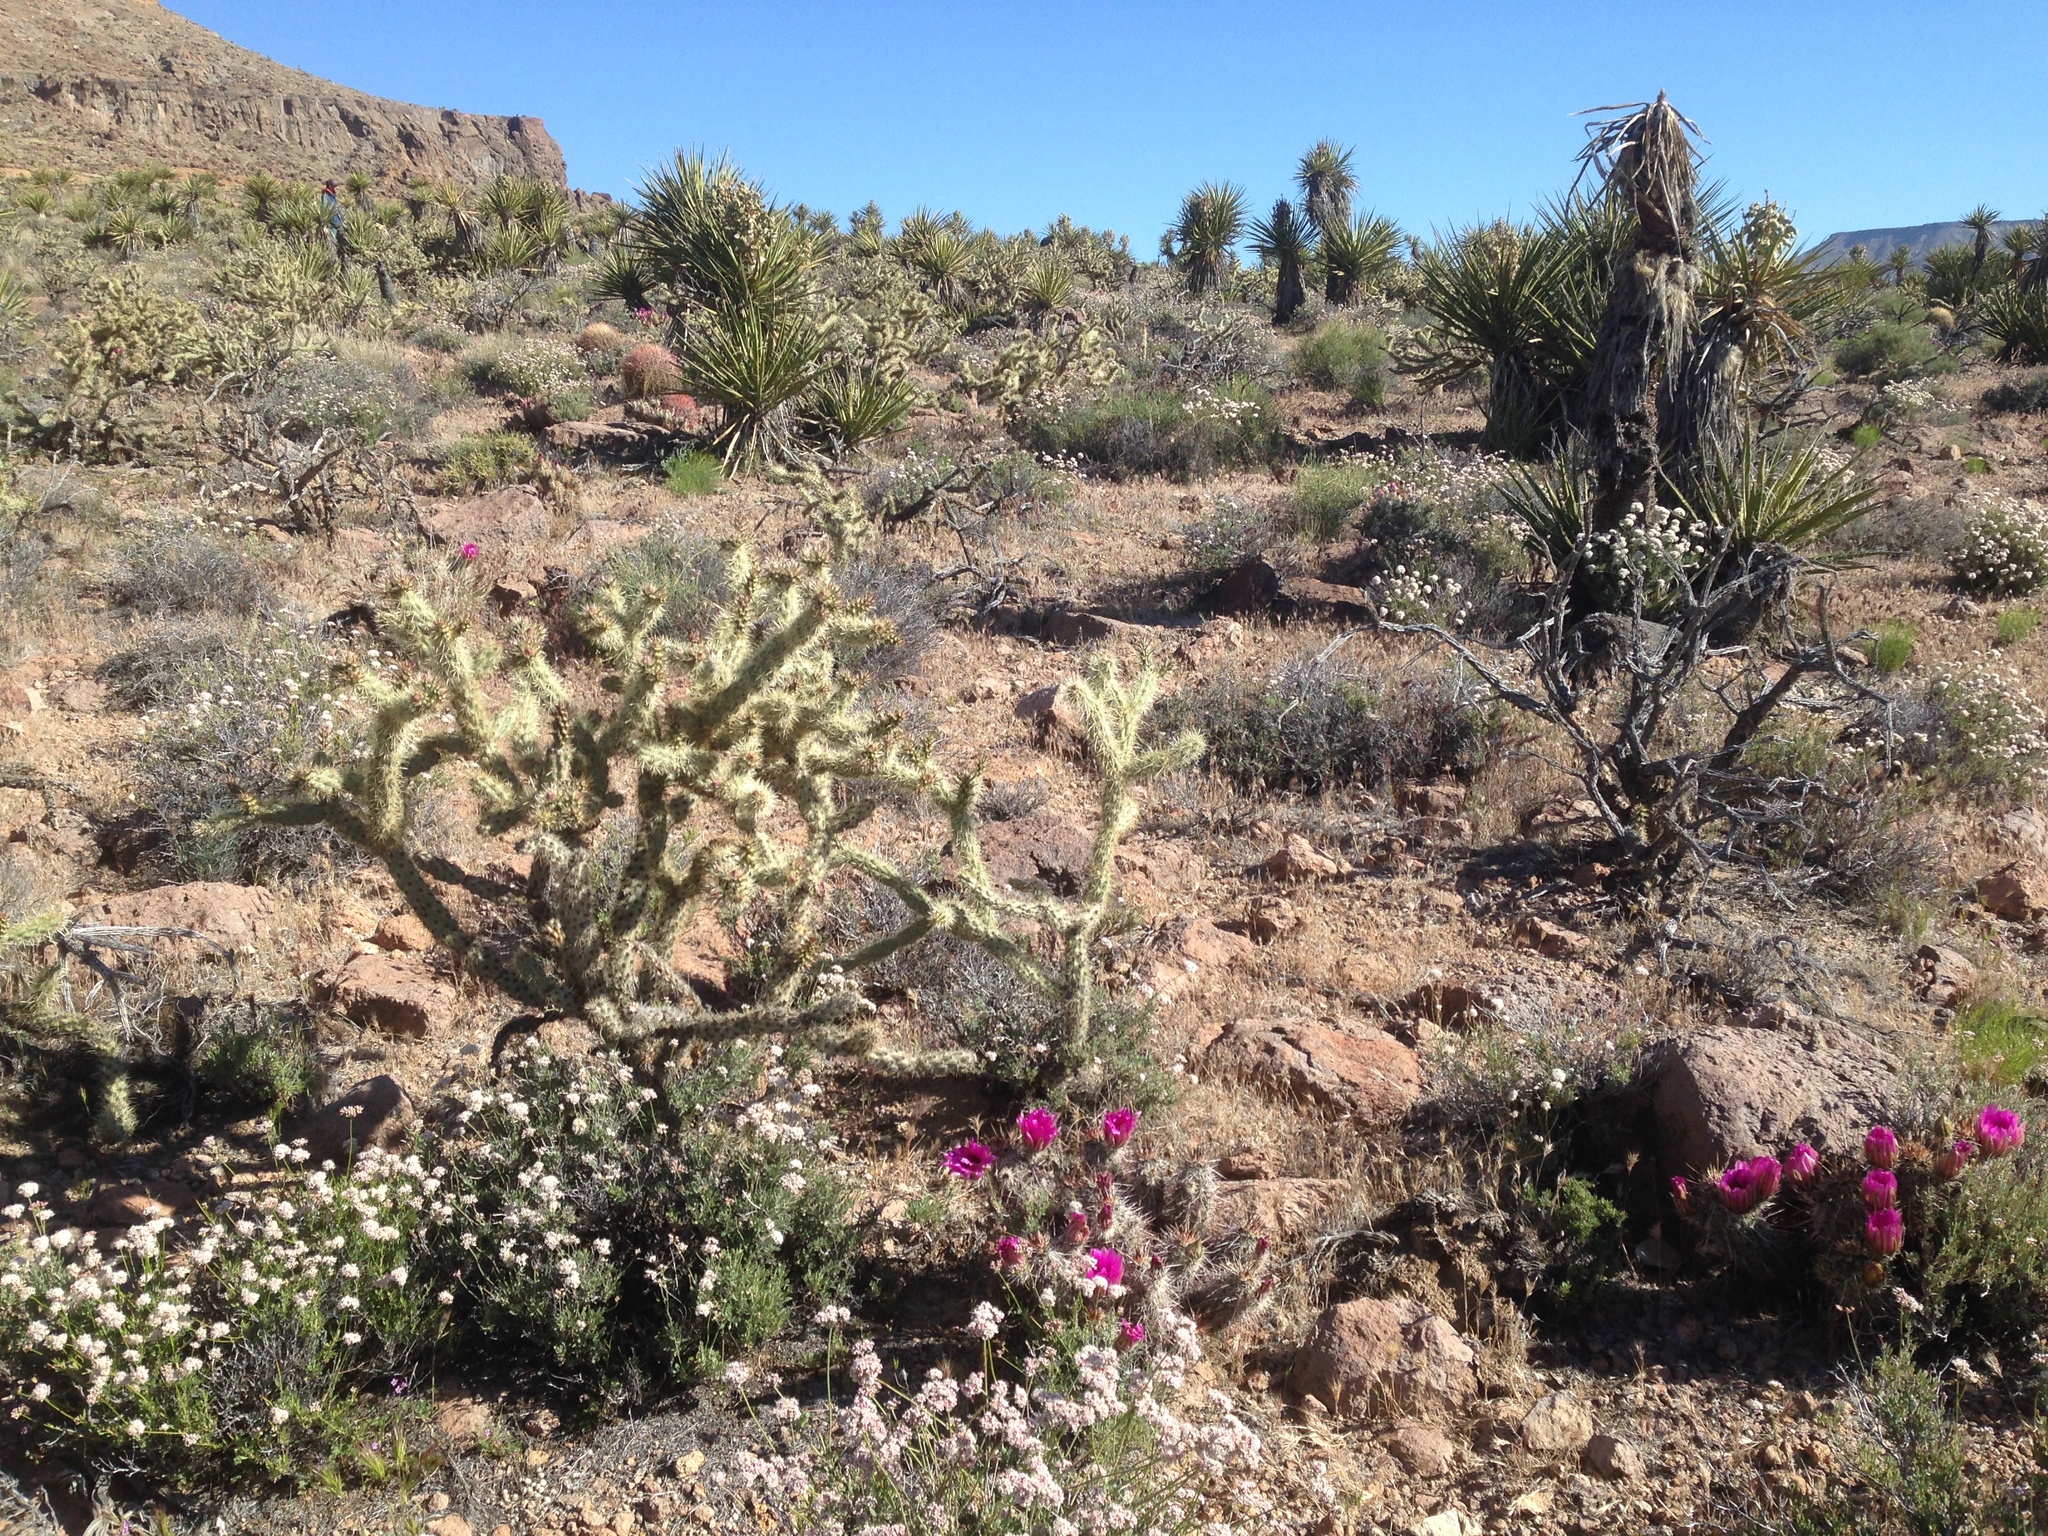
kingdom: Plantae
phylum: Tracheophyta
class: Magnoliopsida
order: Caryophyllales
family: Cactaceae
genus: Cylindropuntia
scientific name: Cylindropuntia acanthocarpa
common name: Buckhorn cholla
